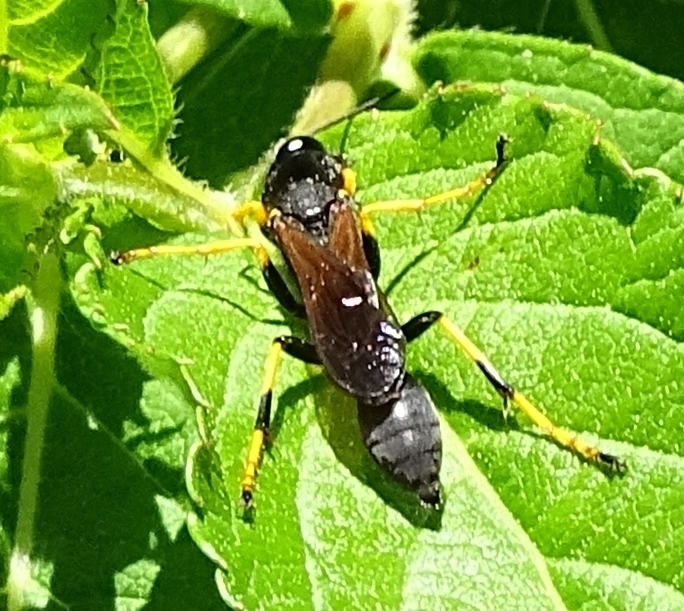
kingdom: Animalia
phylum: Arthropoda
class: Insecta
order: Hymenoptera
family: Sphecidae
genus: Sceliphron
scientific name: Sceliphron caementarium
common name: Mud dauber
